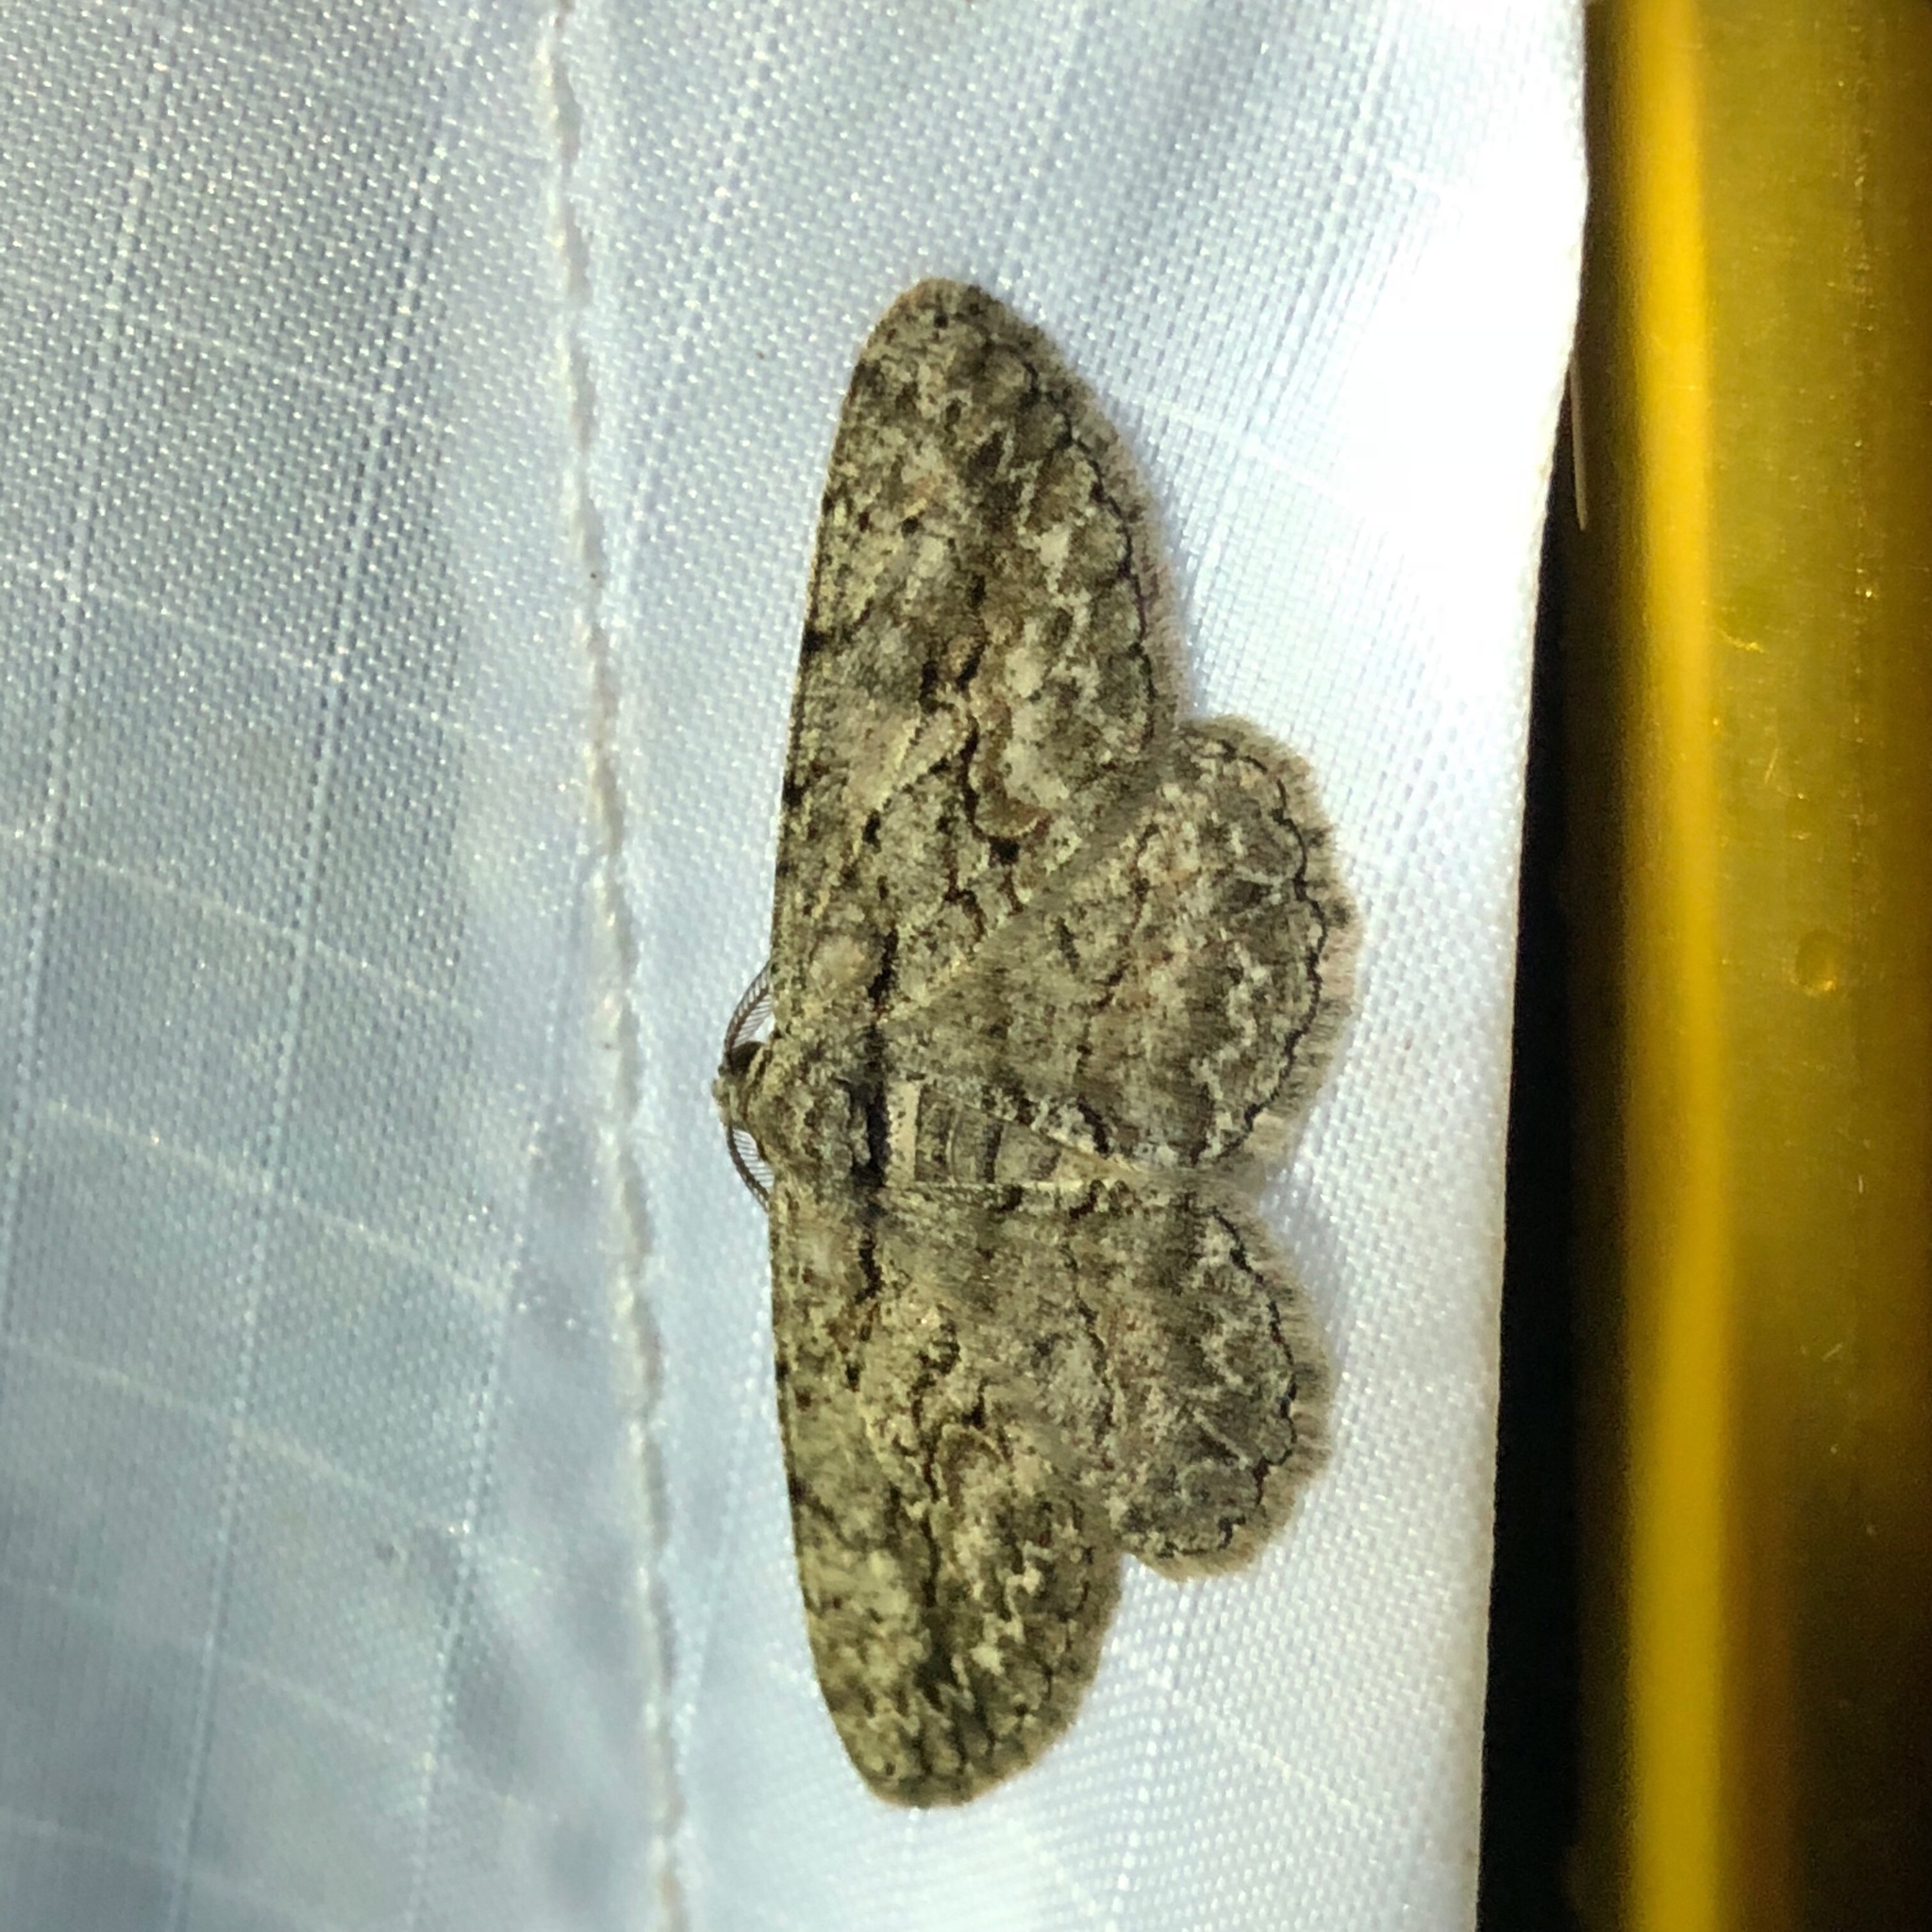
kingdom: Animalia
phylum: Arthropoda
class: Insecta
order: Lepidoptera
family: Geometridae
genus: Anavitrinella
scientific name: Anavitrinella pampinaria
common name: Common gray
